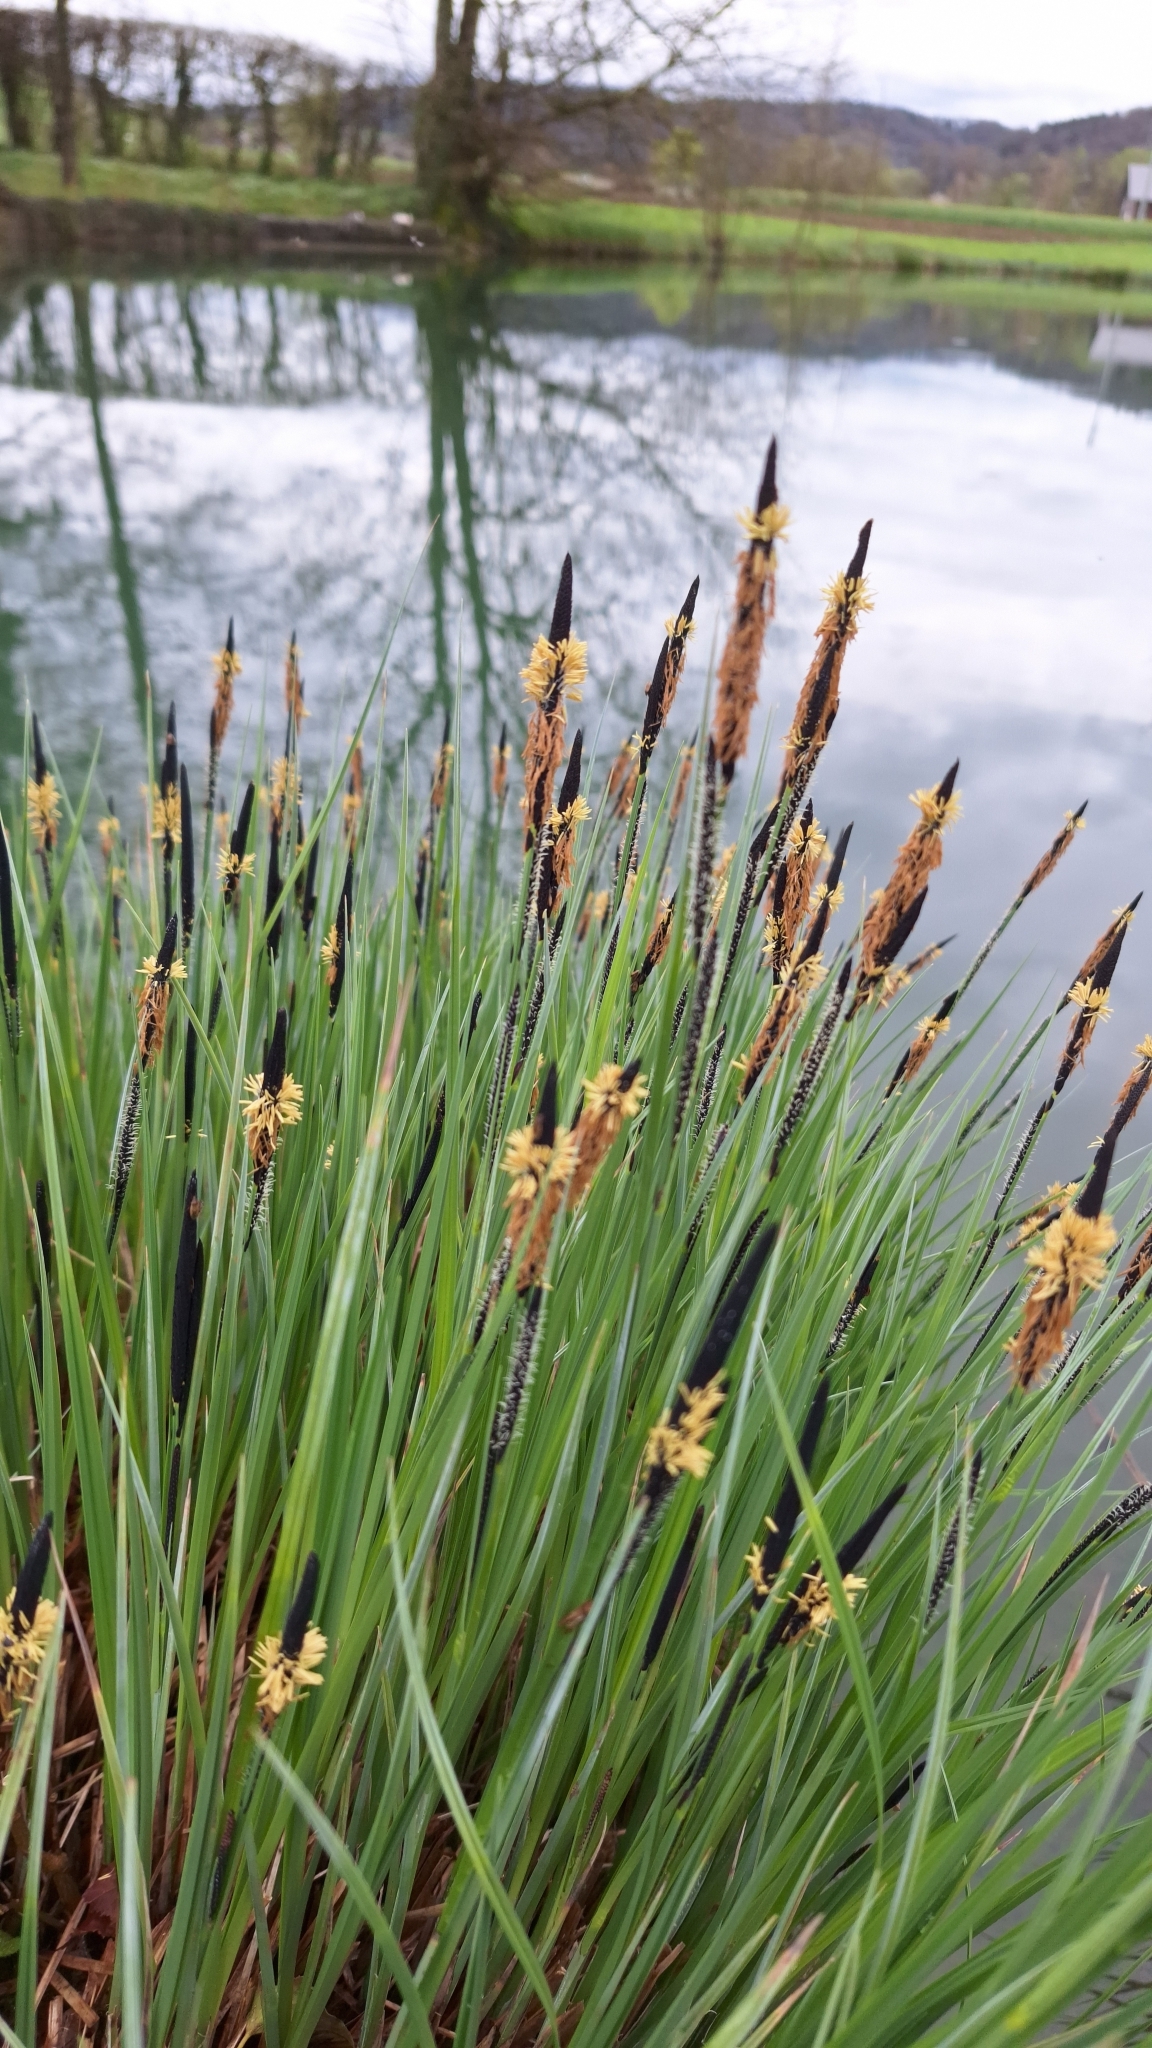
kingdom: Plantae
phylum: Tracheophyta
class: Liliopsida
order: Poales
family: Cyperaceae
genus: Carex
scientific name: Carex elata
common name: Tufted sedge
